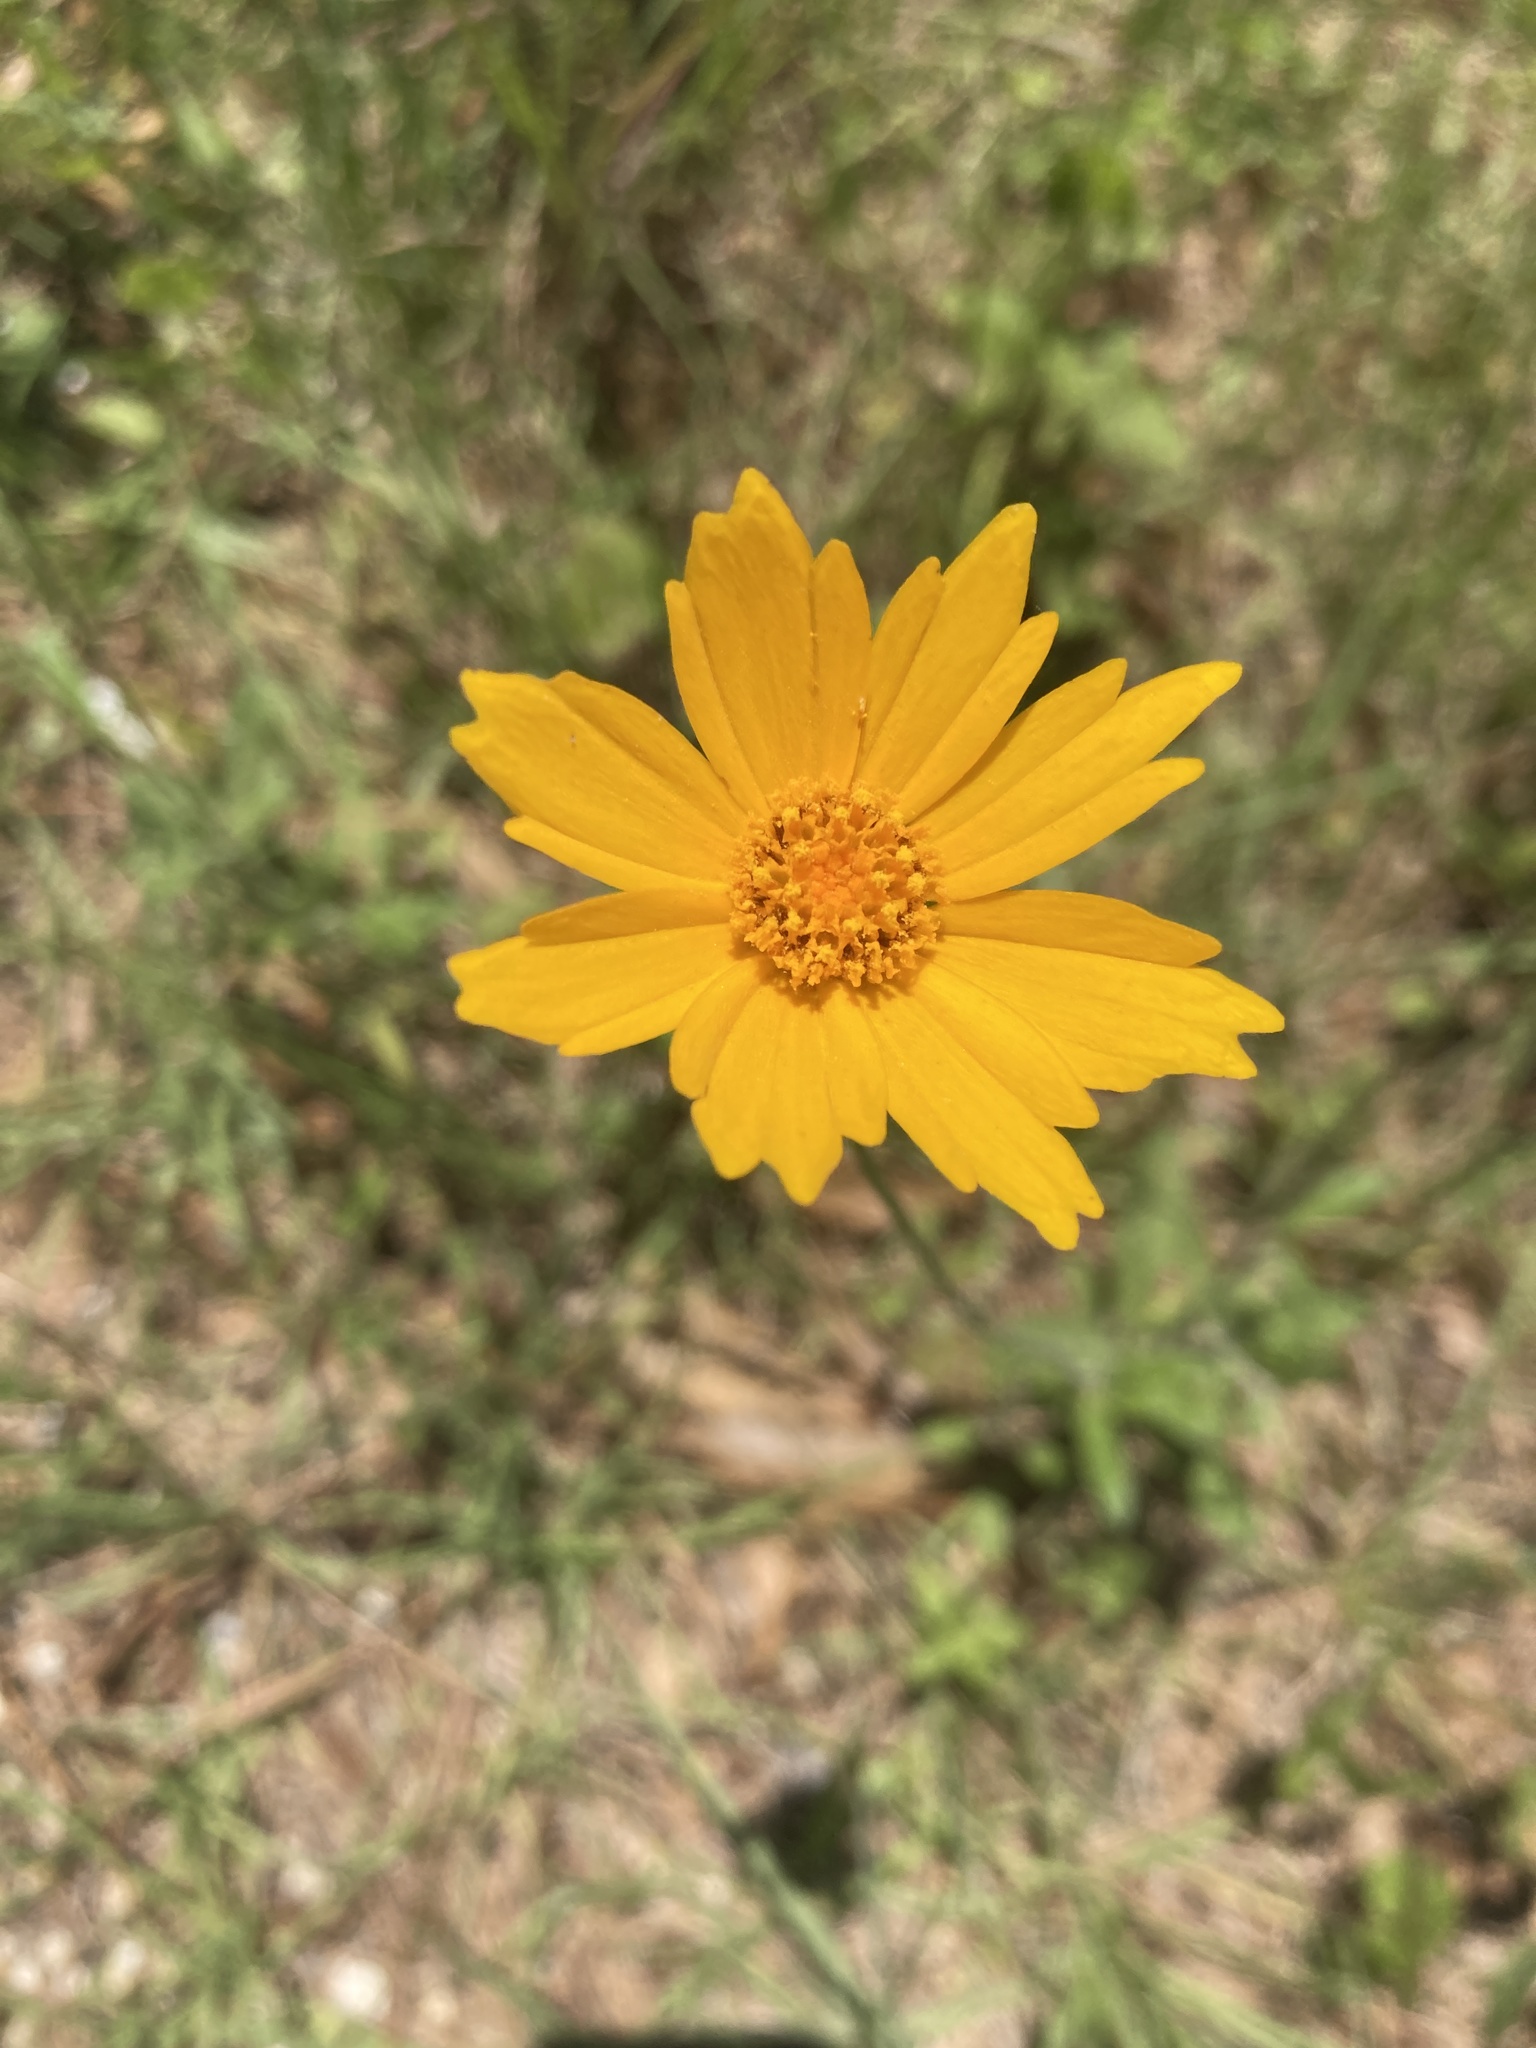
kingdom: Plantae
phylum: Tracheophyta
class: Magnoliopsida
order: Asterales
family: Asteraceae
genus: Coreopsis
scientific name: Coreopsis lanceolata
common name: Garden coreopsis
